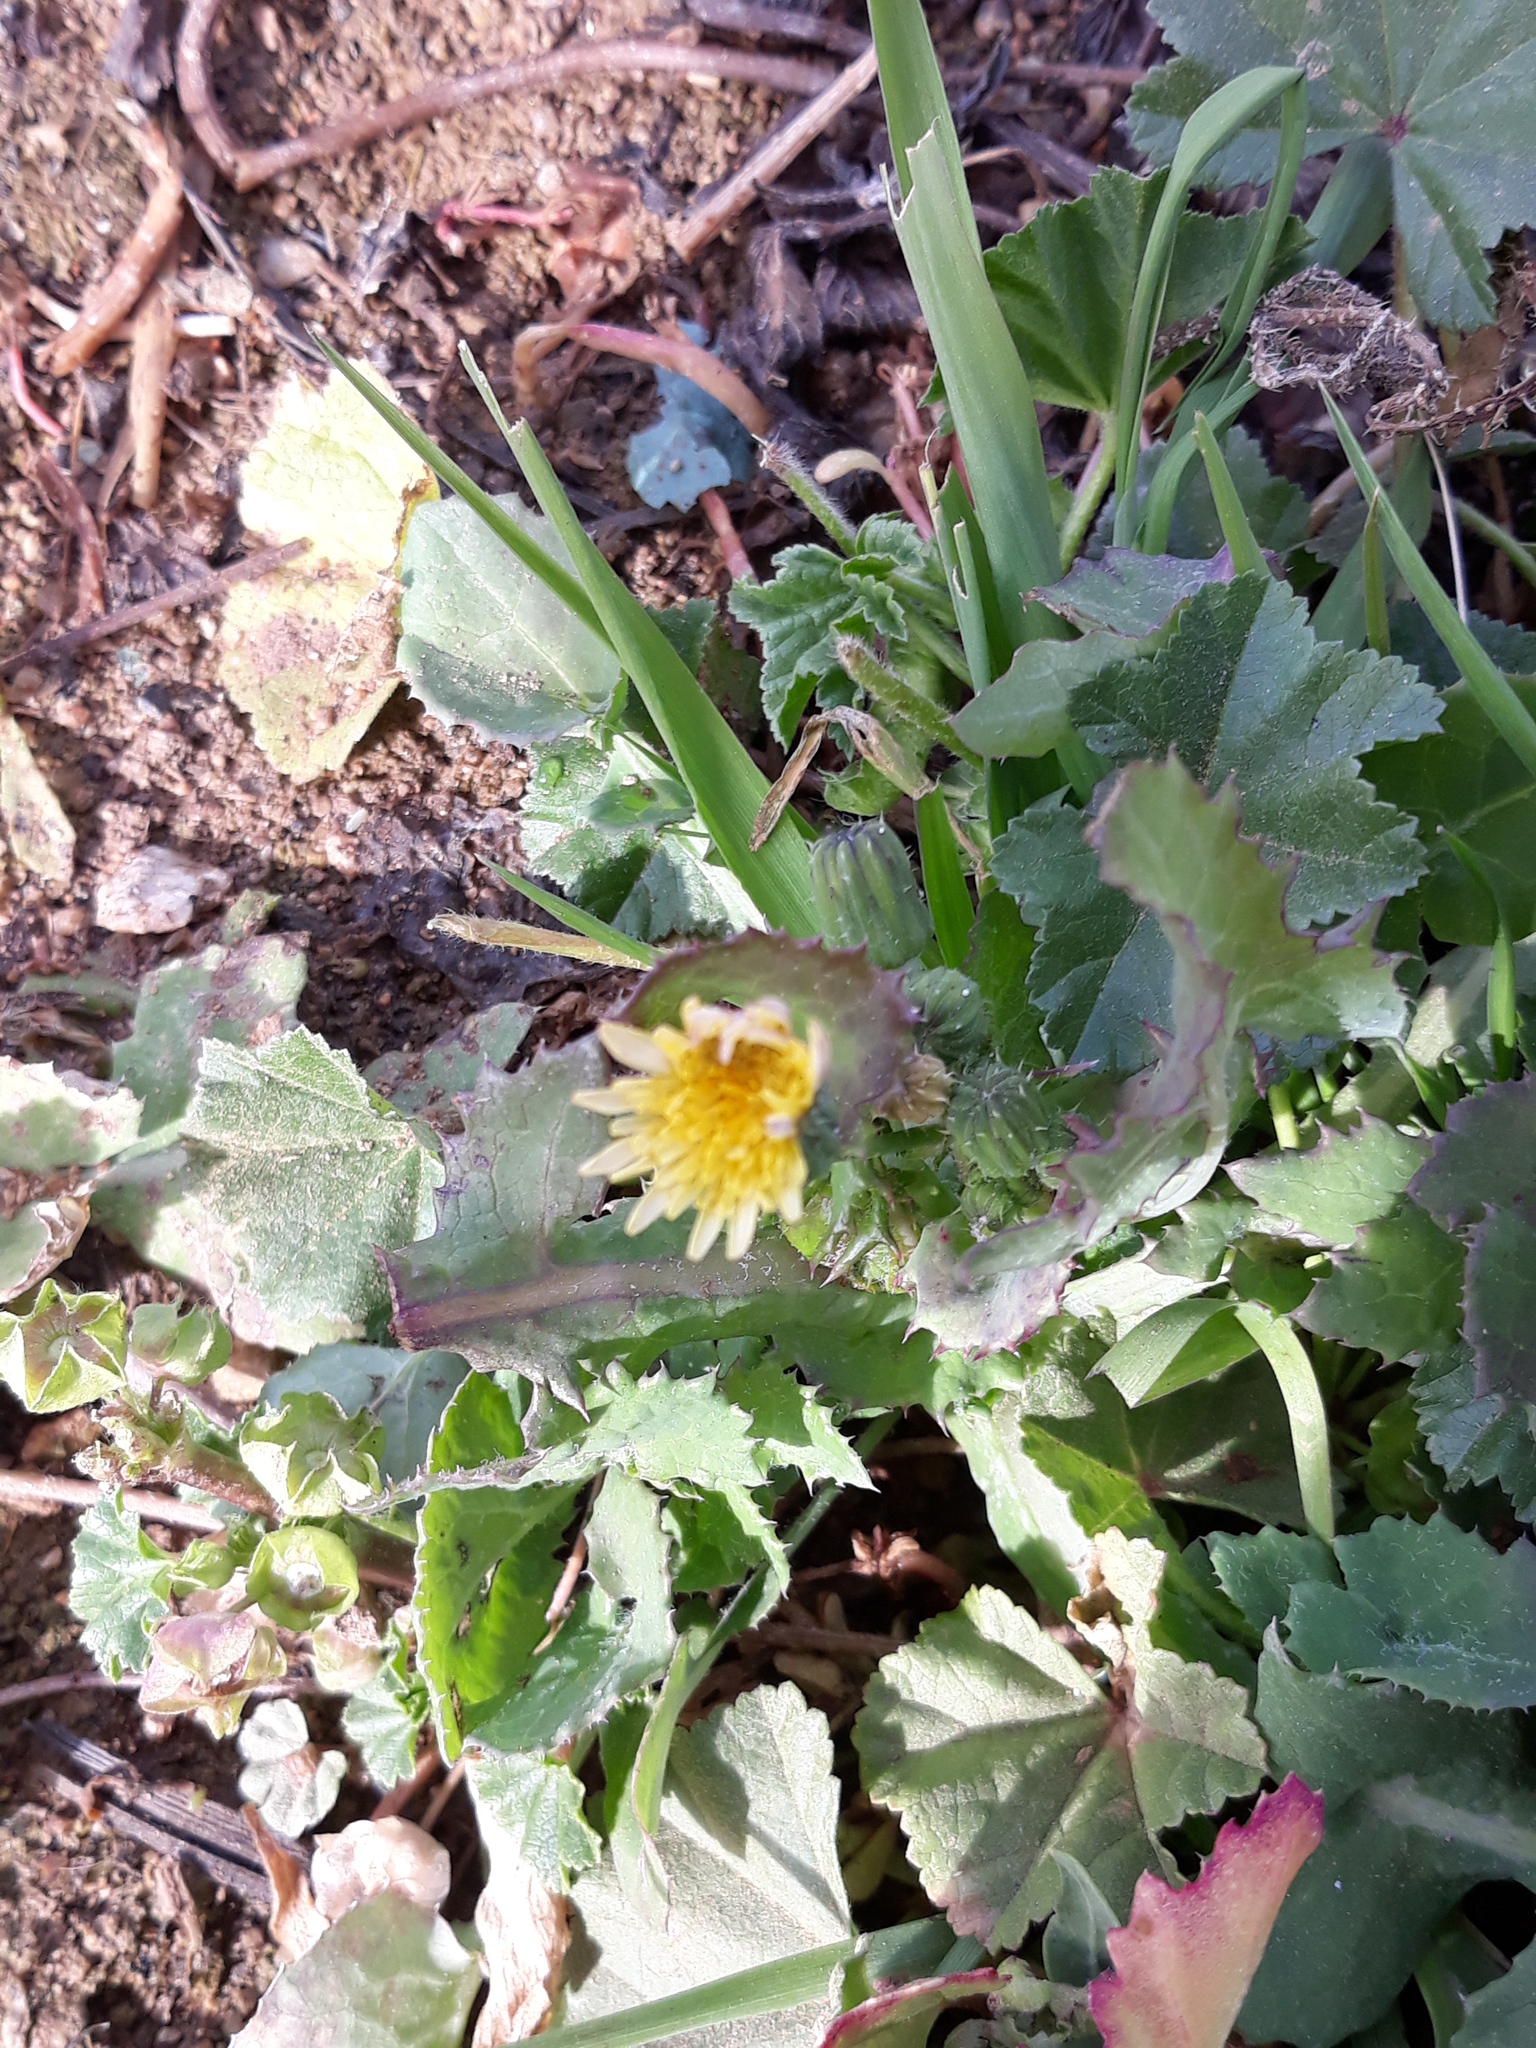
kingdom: Plantae
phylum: Tracheophyta
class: Magnoliopsida
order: Asterales
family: Asteraceae
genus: Sonchus
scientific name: Sonchus oleraceus
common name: Common sowthistle
